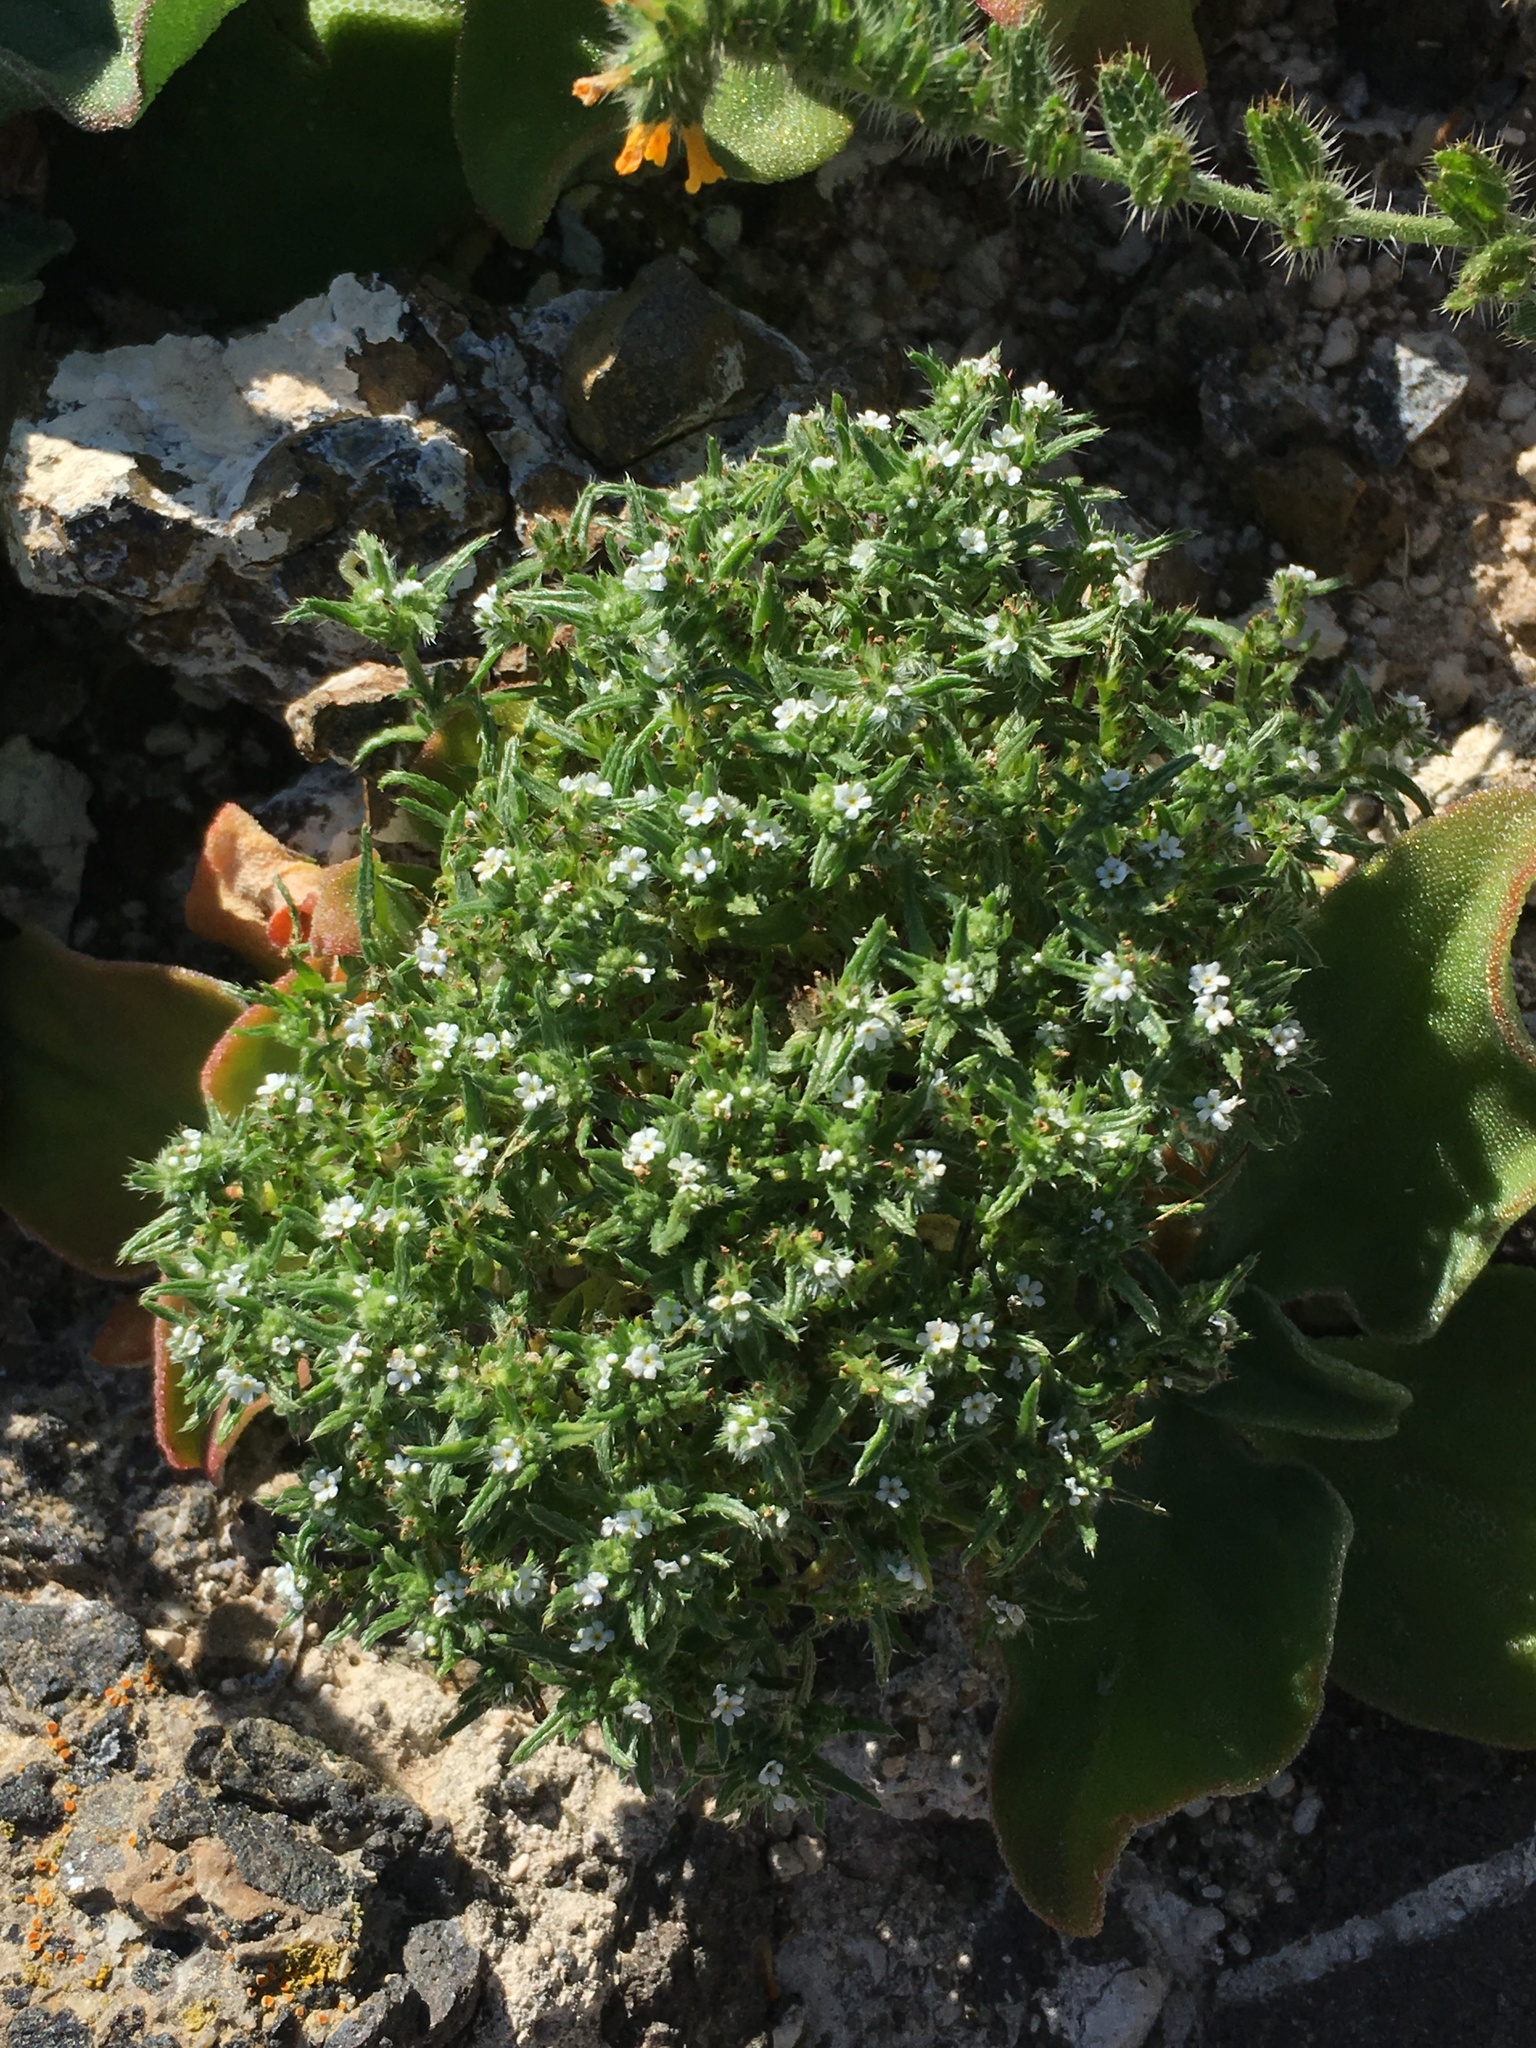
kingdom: Plantae
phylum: Tracheophyta
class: Magnoliopsida
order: Boraginales
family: Boraginaceae
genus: Cryptantha
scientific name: Cryptantha maritima
